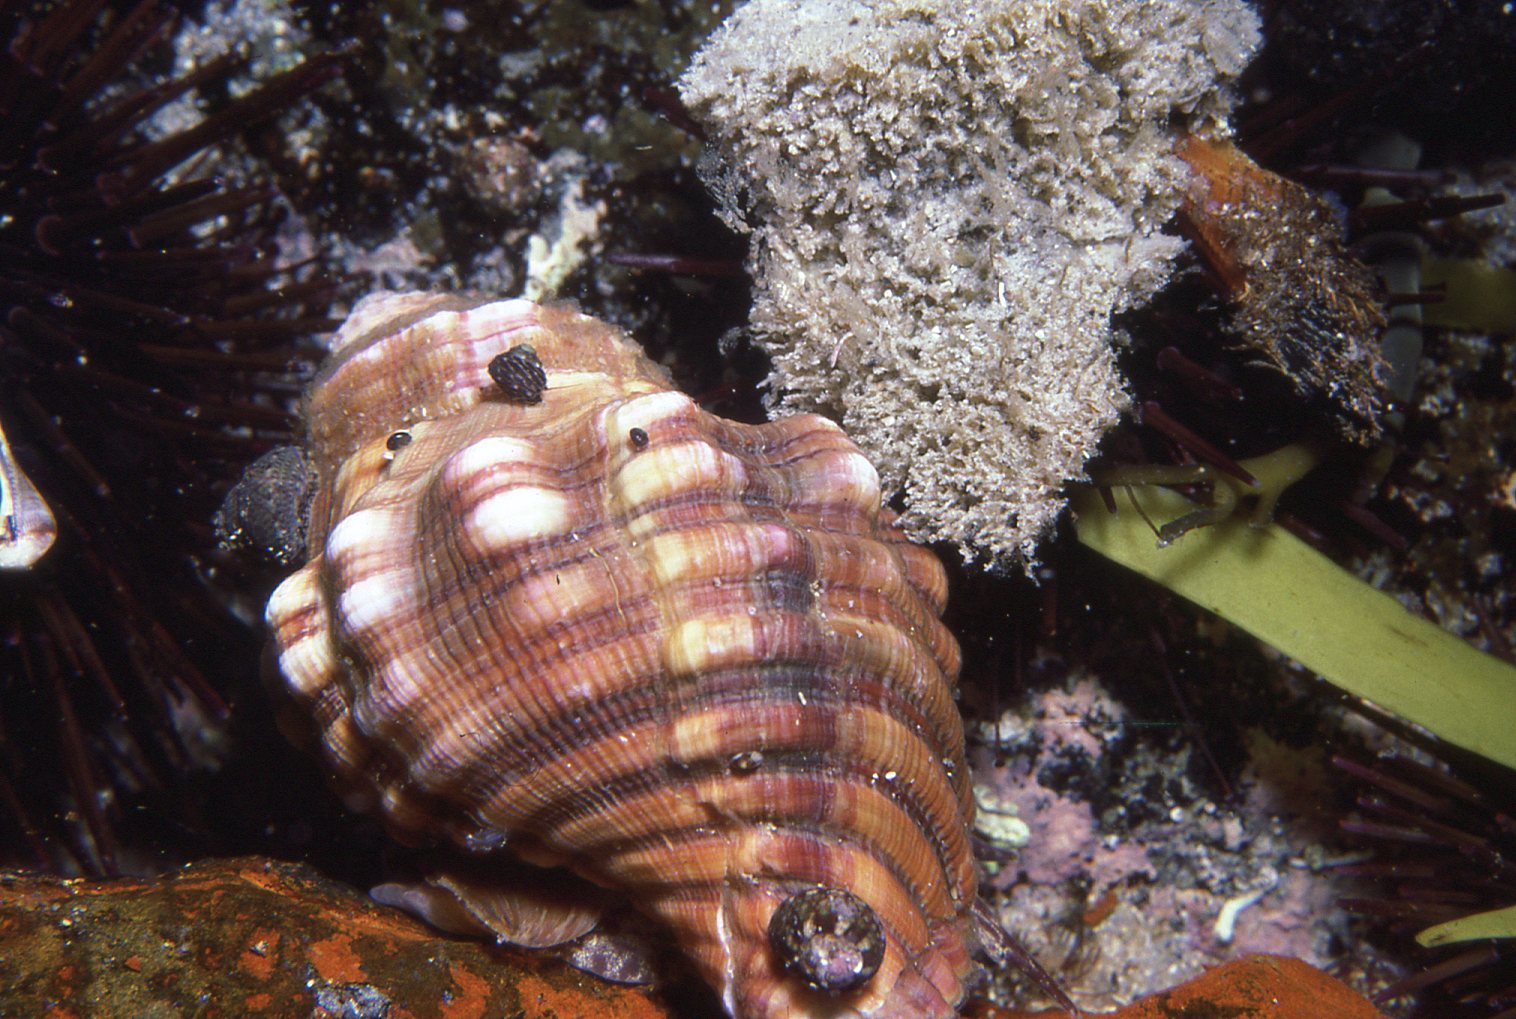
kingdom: Animalia
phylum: Mollusca
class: Gastropoda
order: Littorinimorpha
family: Cymatiidae
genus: Cabestana
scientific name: Cabestana spengleri
